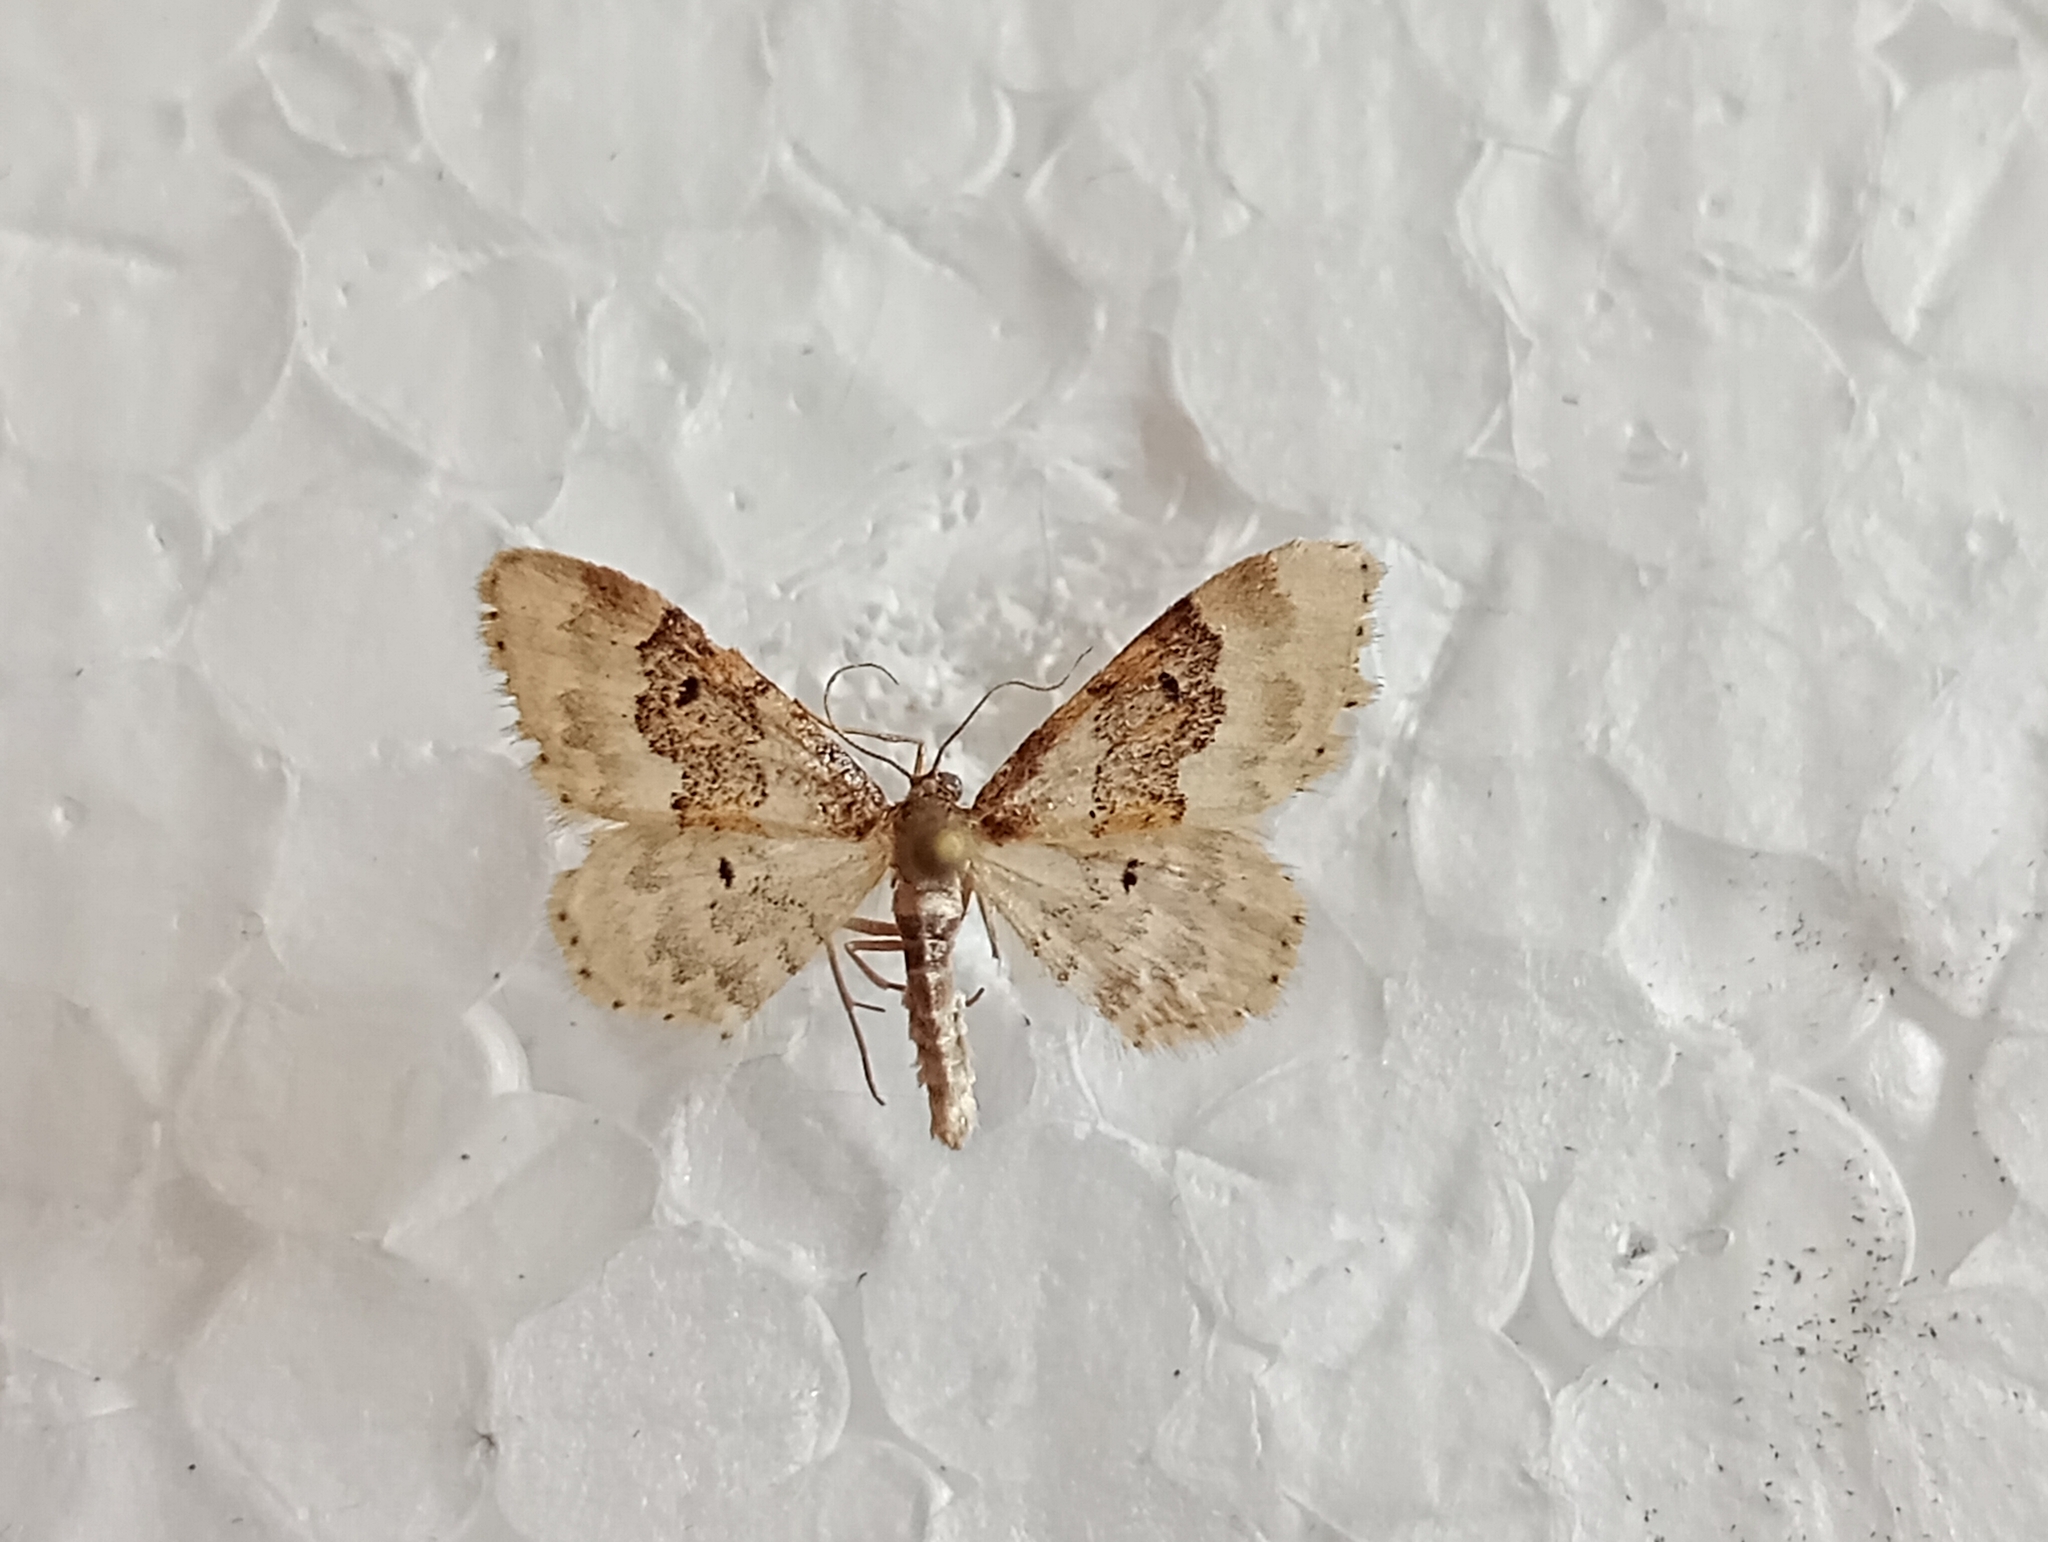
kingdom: Animalia
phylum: Arthropoda
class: Insecta
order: Lepidoptera
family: Geometridae
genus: Idaea
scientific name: Idaea rusticata
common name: Least carpet
